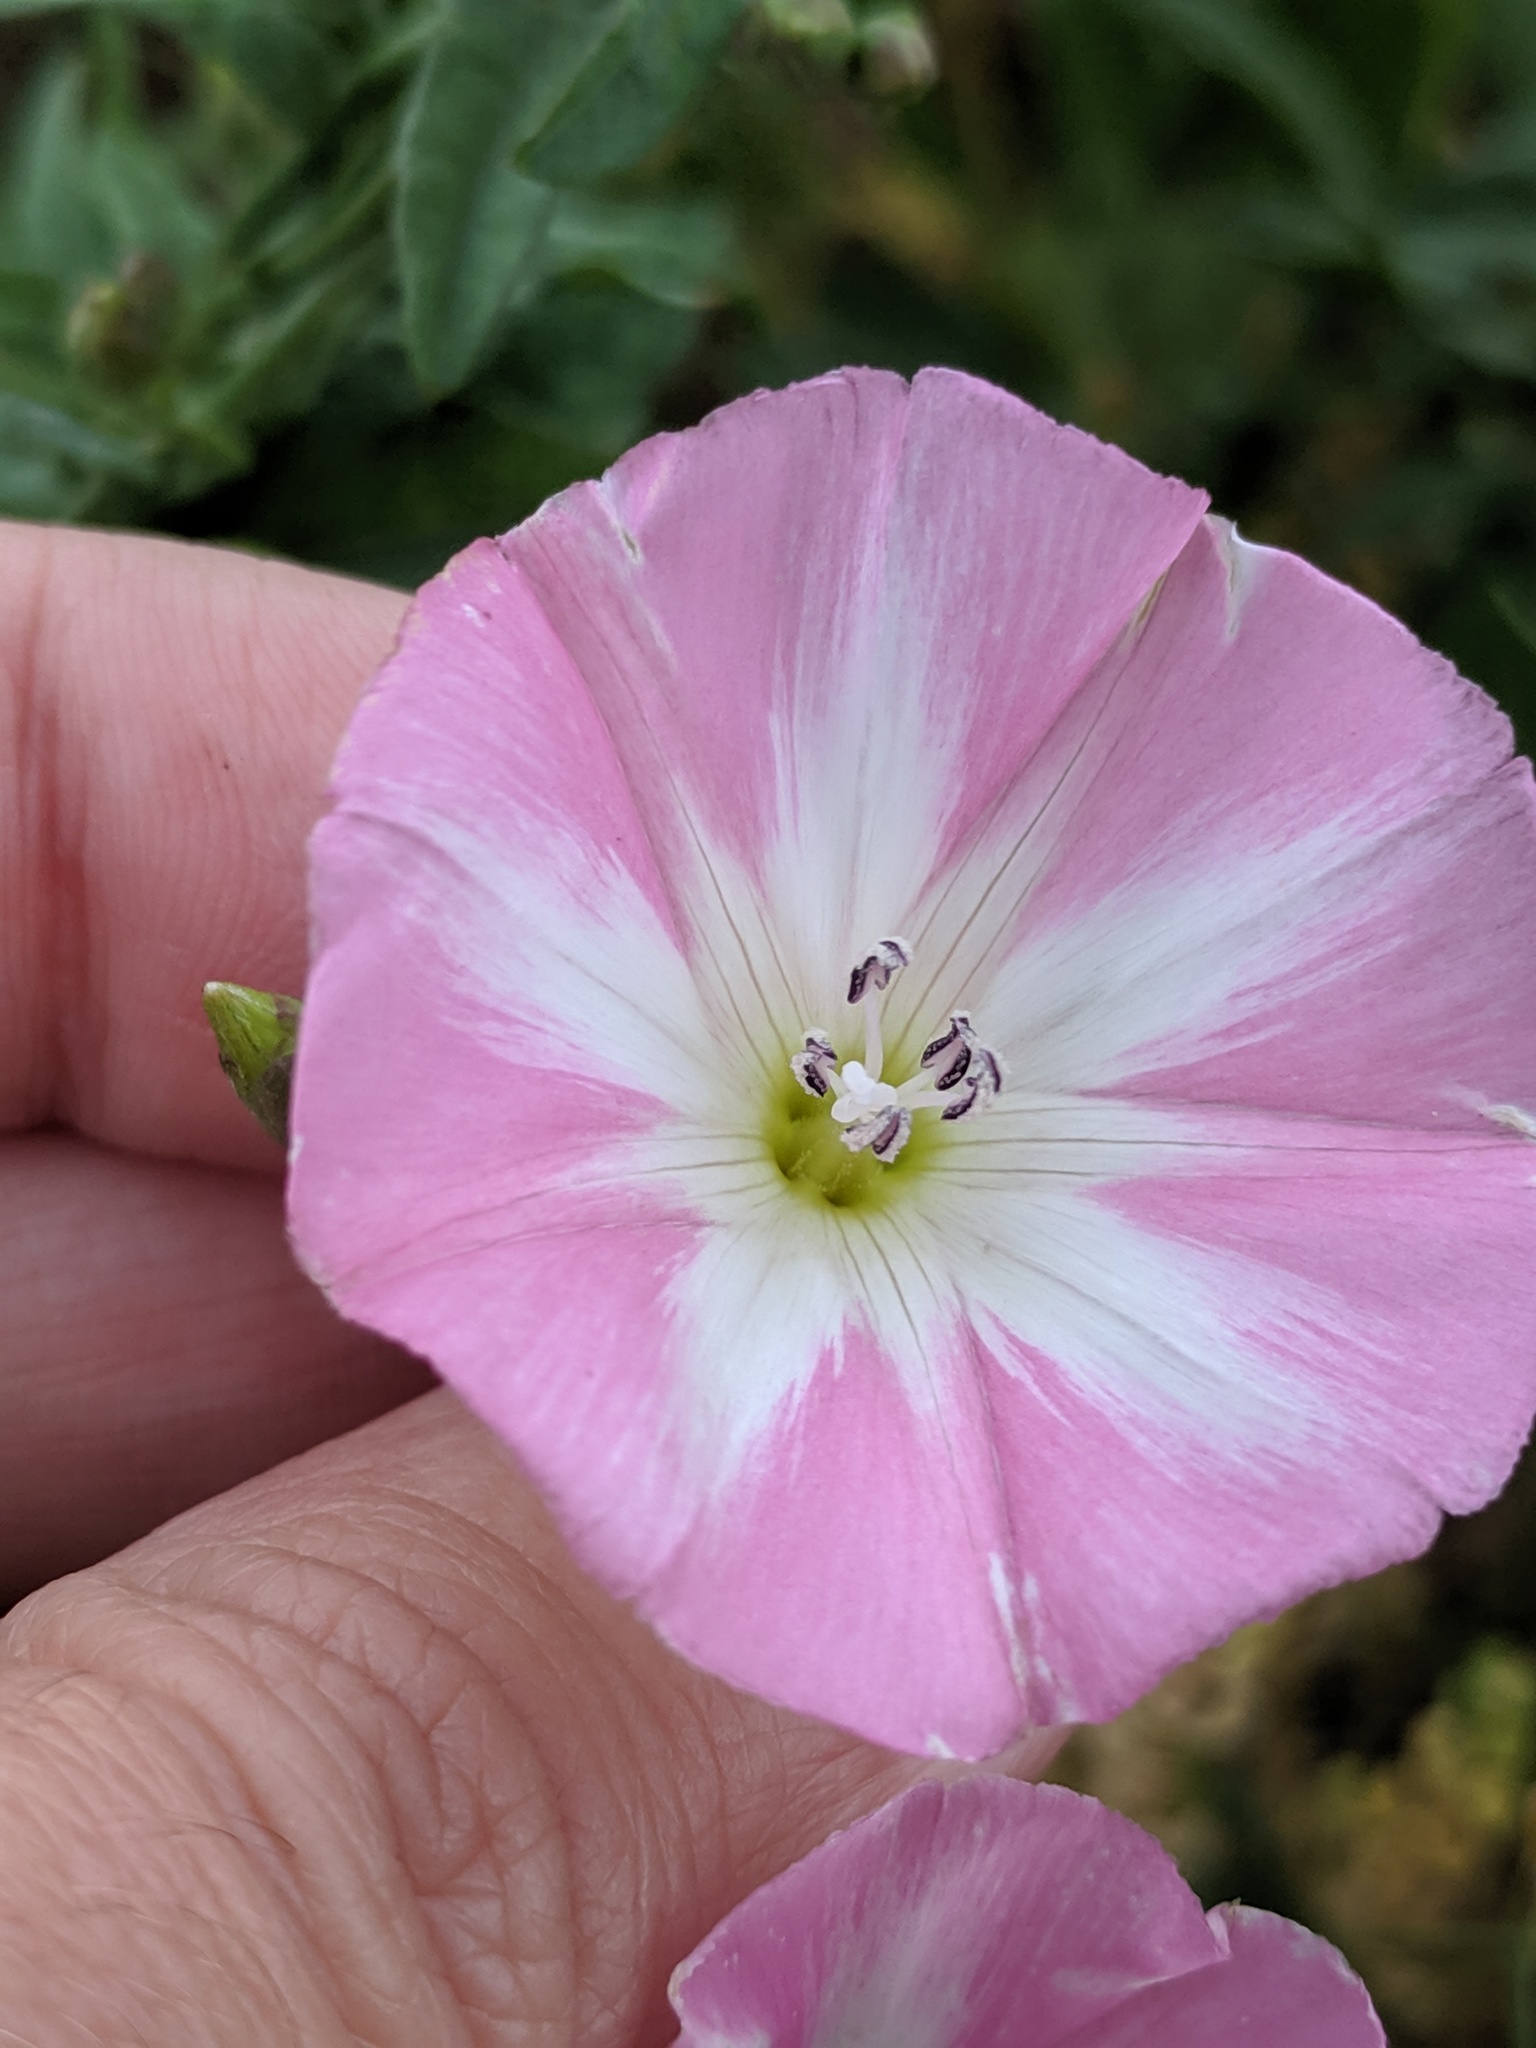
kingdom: Plantae
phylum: Tracheophyta
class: Magnoliopsida
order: Solanales
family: Convolvulaceae
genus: Convolvulus
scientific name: Convolvulus arvensis
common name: Field bindweed
